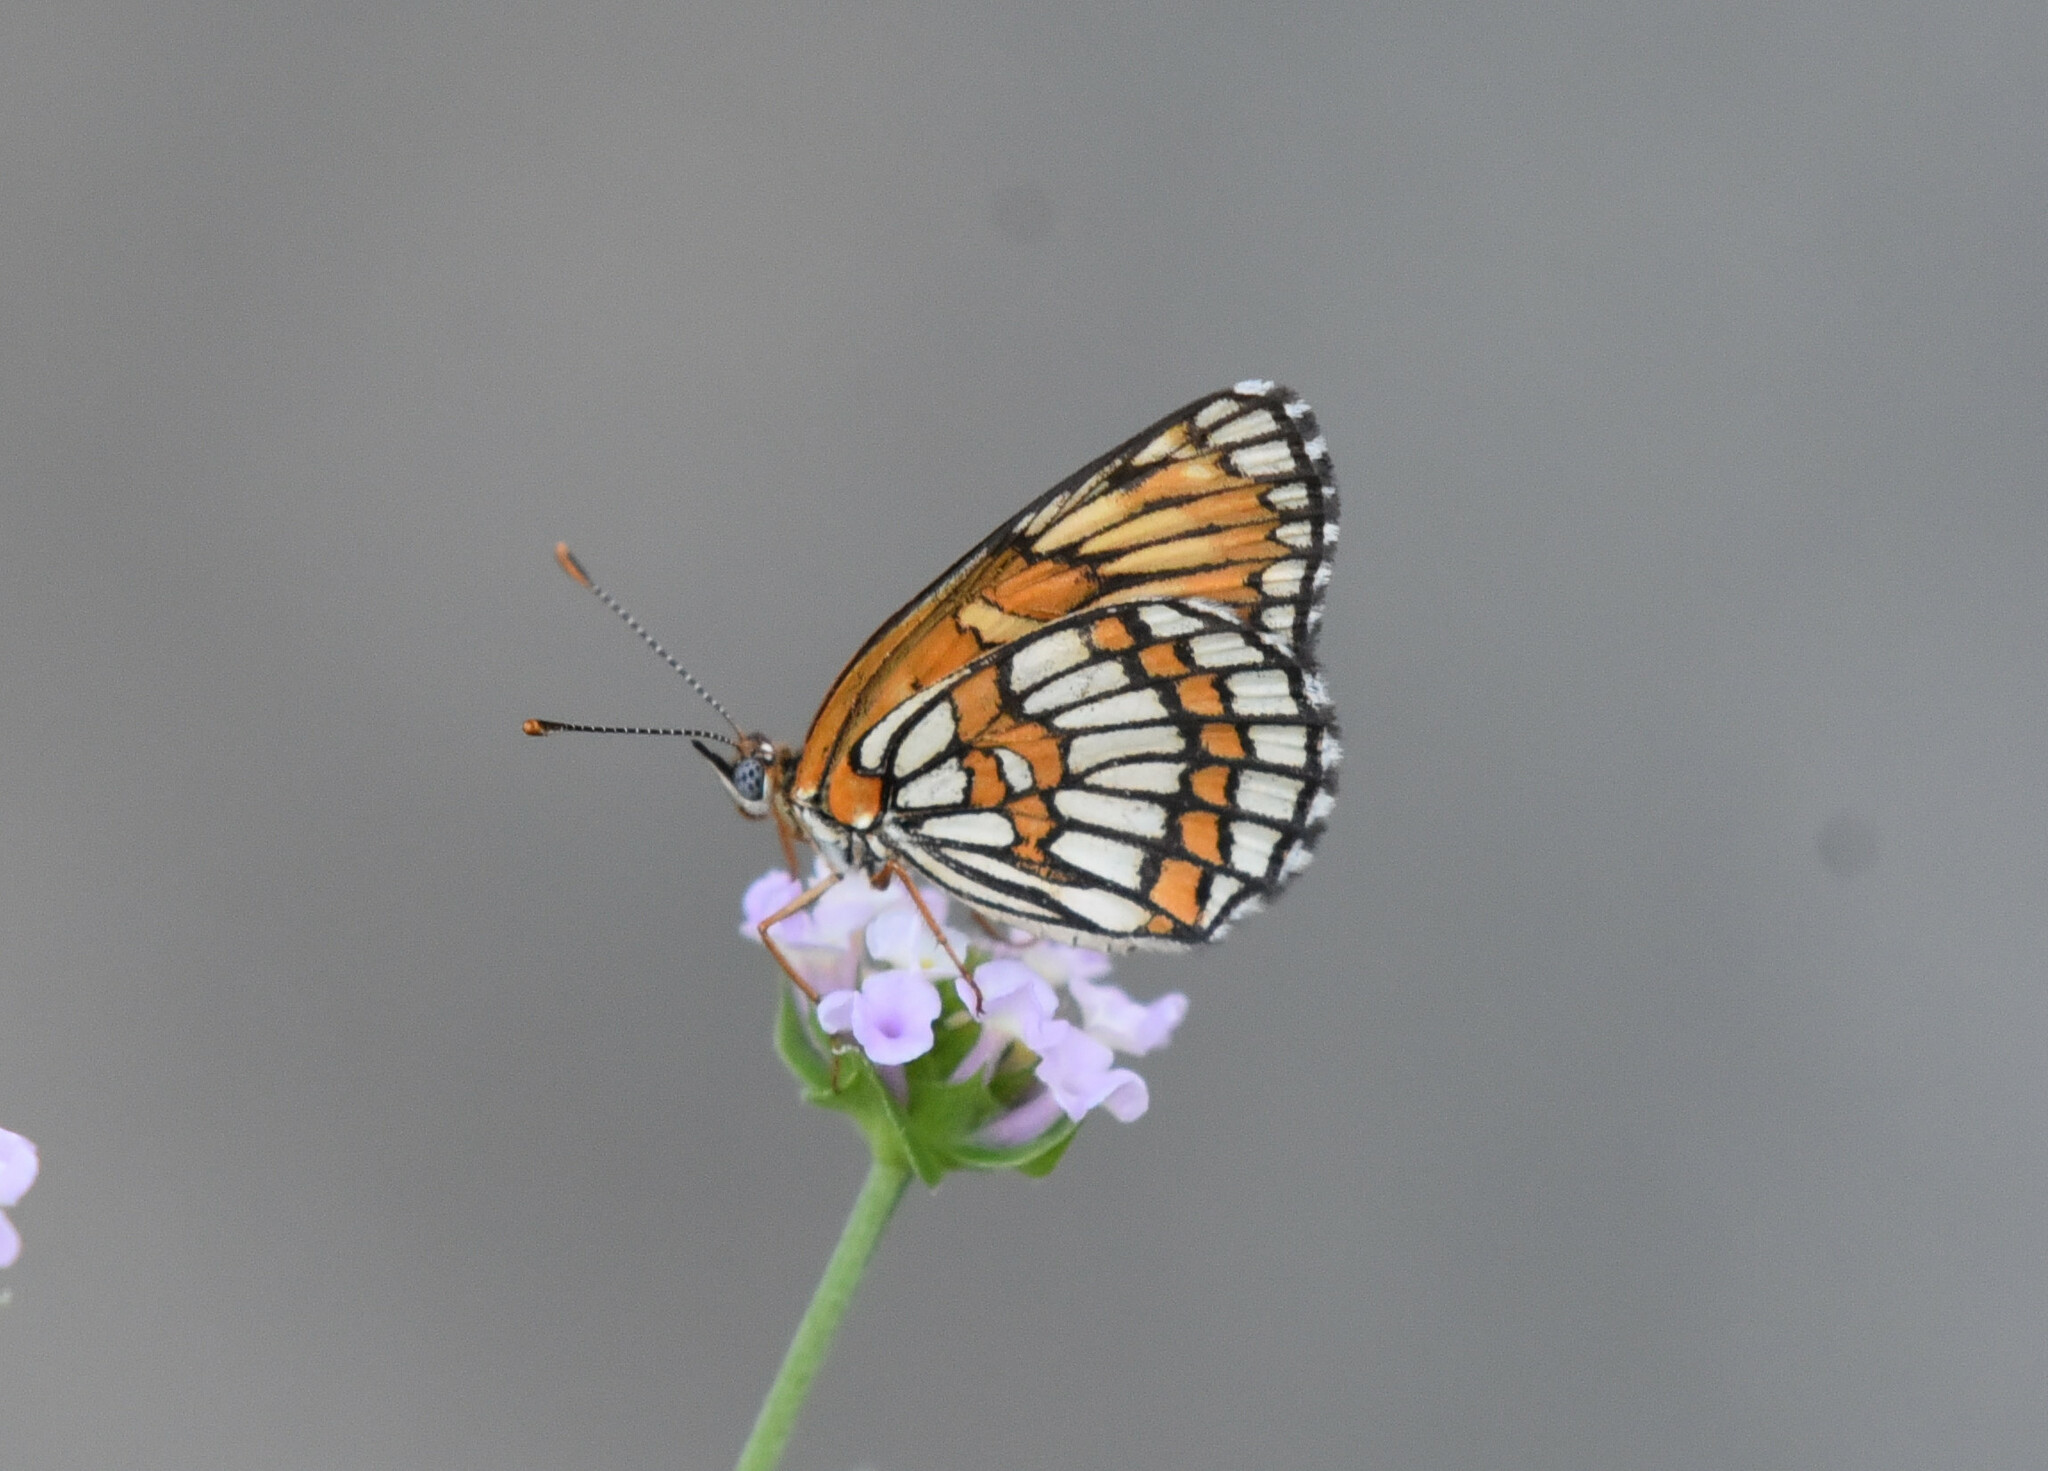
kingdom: Animalia
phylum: Arthropoda
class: Insecta
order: Lepidoptera
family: Nymphalidae
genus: Thessalia
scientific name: Thessalia theona
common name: Nymphalid moth
